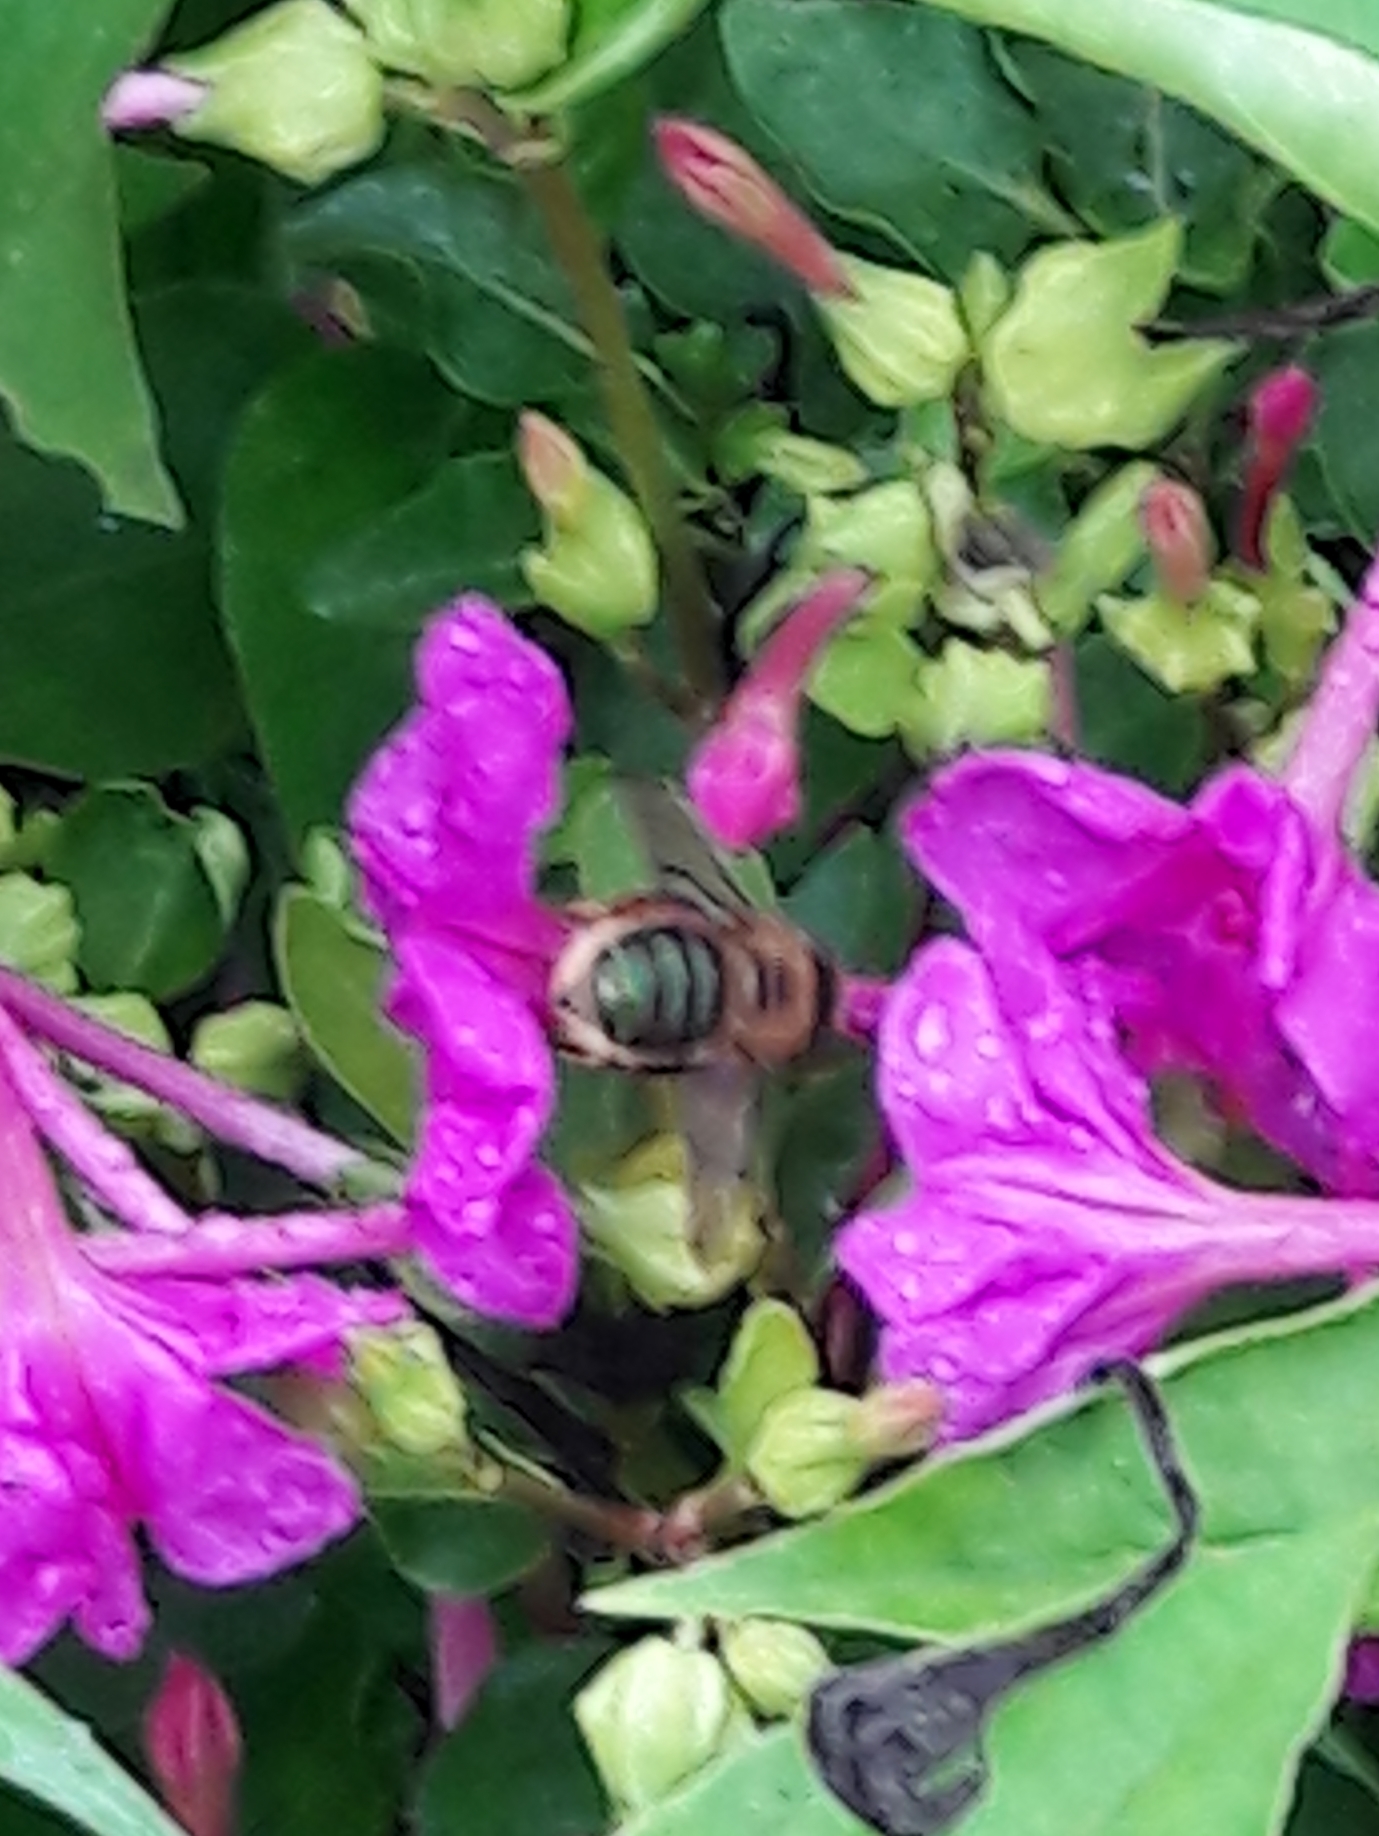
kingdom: Animalia
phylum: Arthropoda
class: Insecta
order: Hymenoptera
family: Andrenidae
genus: Oxaea
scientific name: Oxaea flavescens
